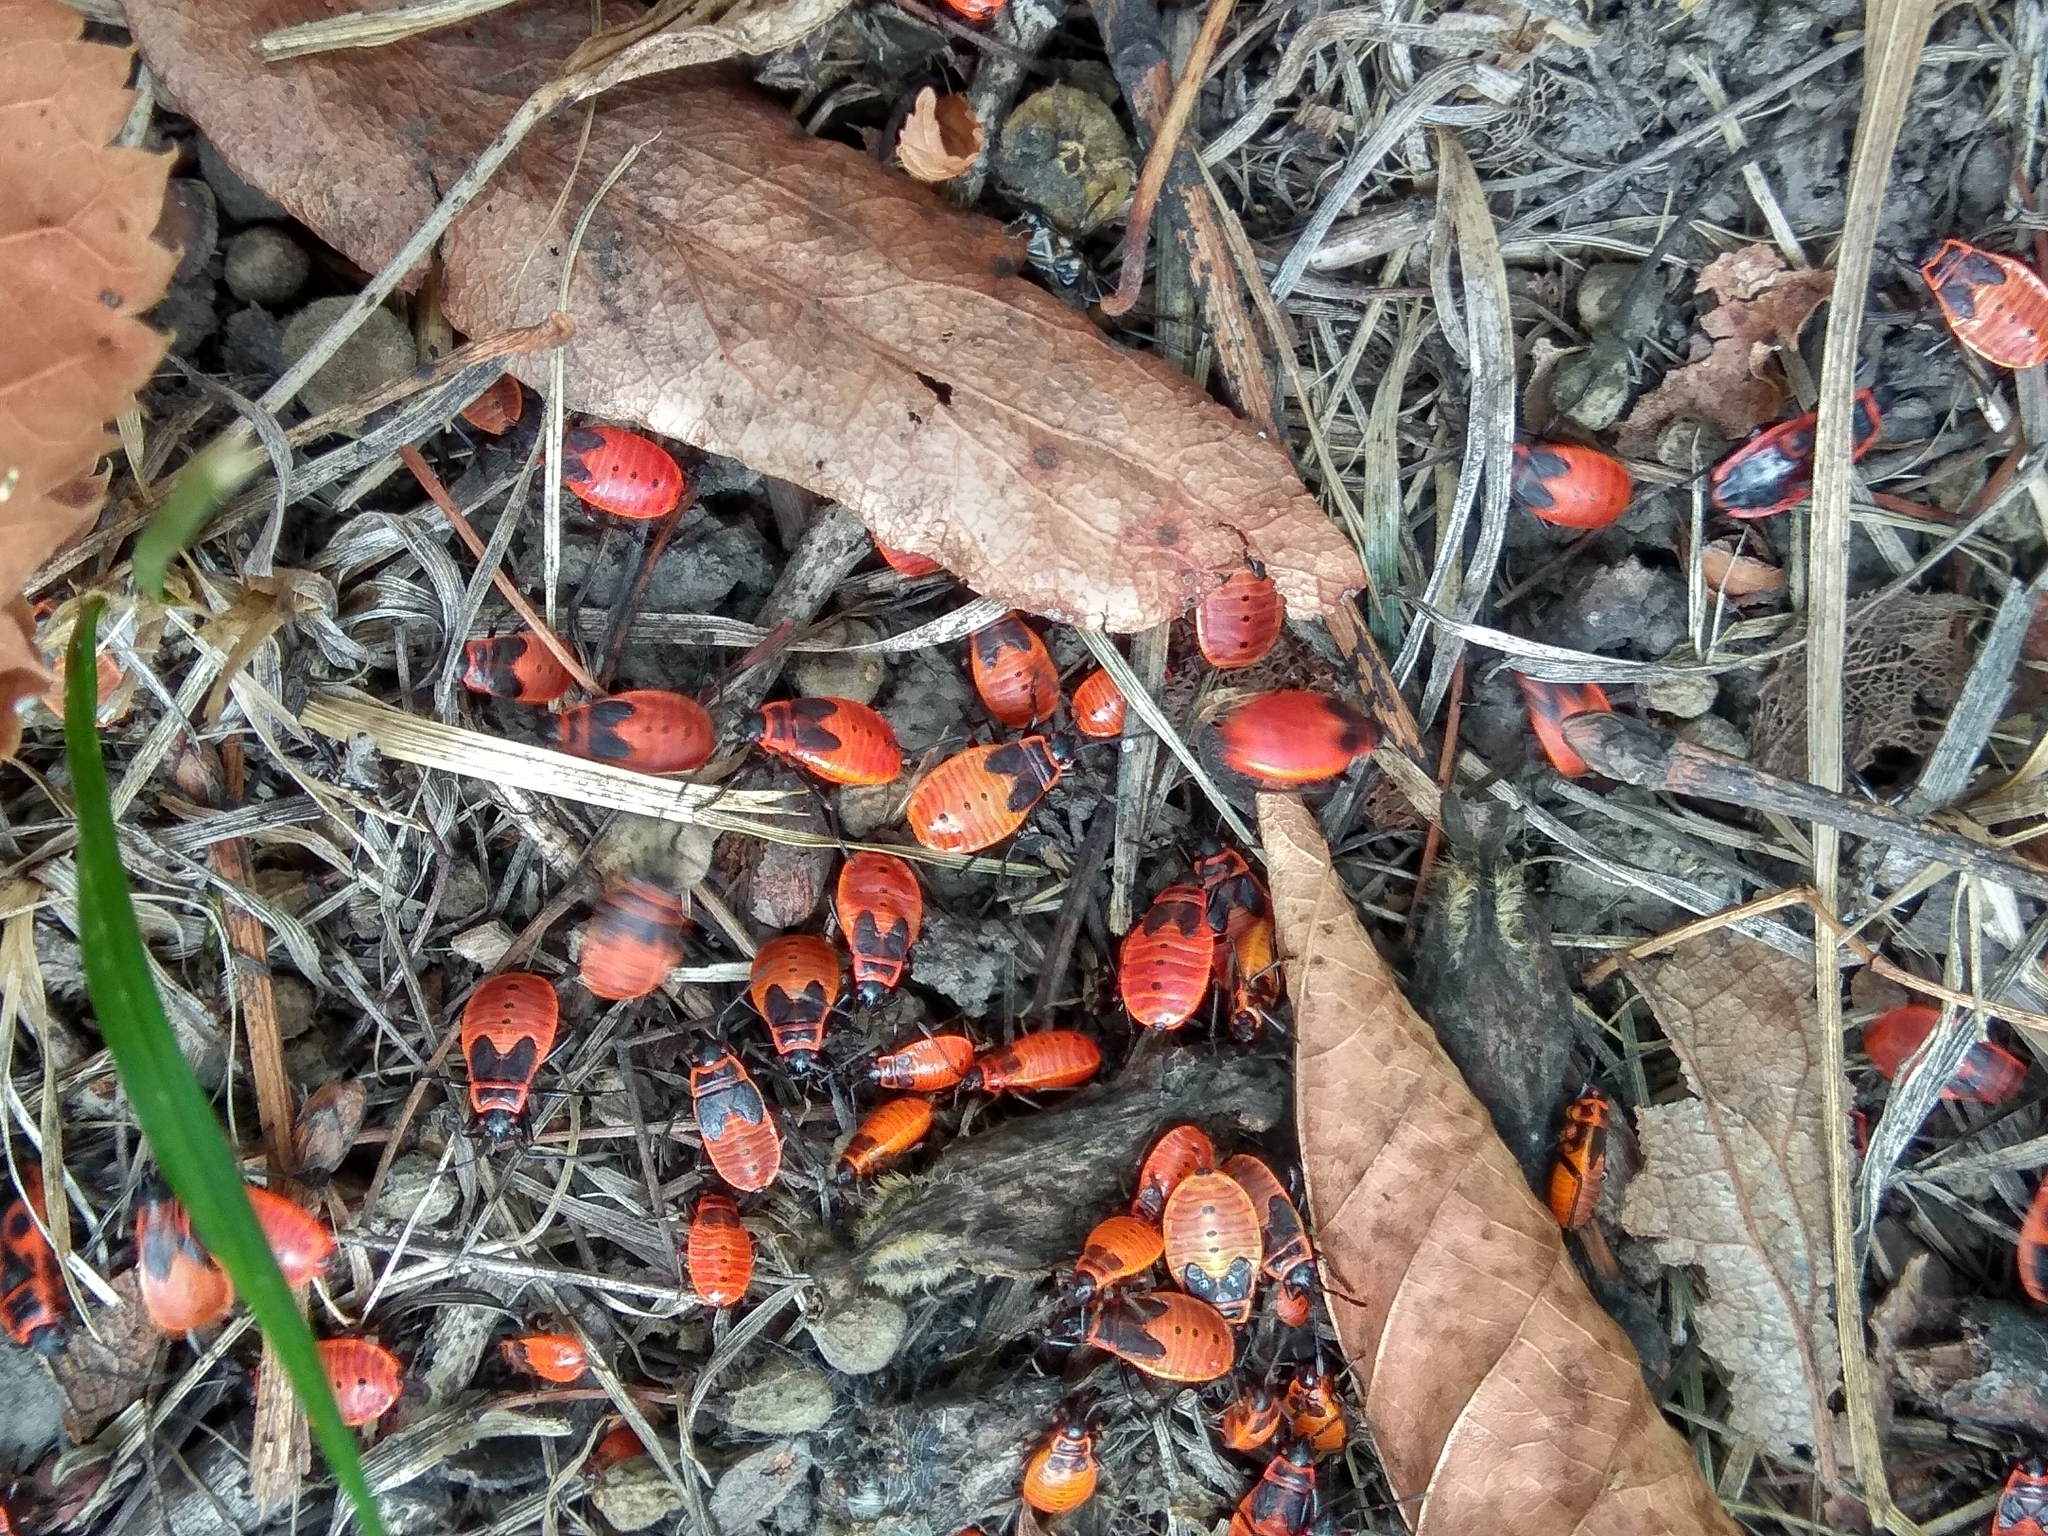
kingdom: Animalia
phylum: Arthropoda
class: Insecta
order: Hemiptera
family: Pyrrhocoridae
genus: Pyrrhocoris
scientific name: Pyrrhocoris apterus
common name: Firebug
